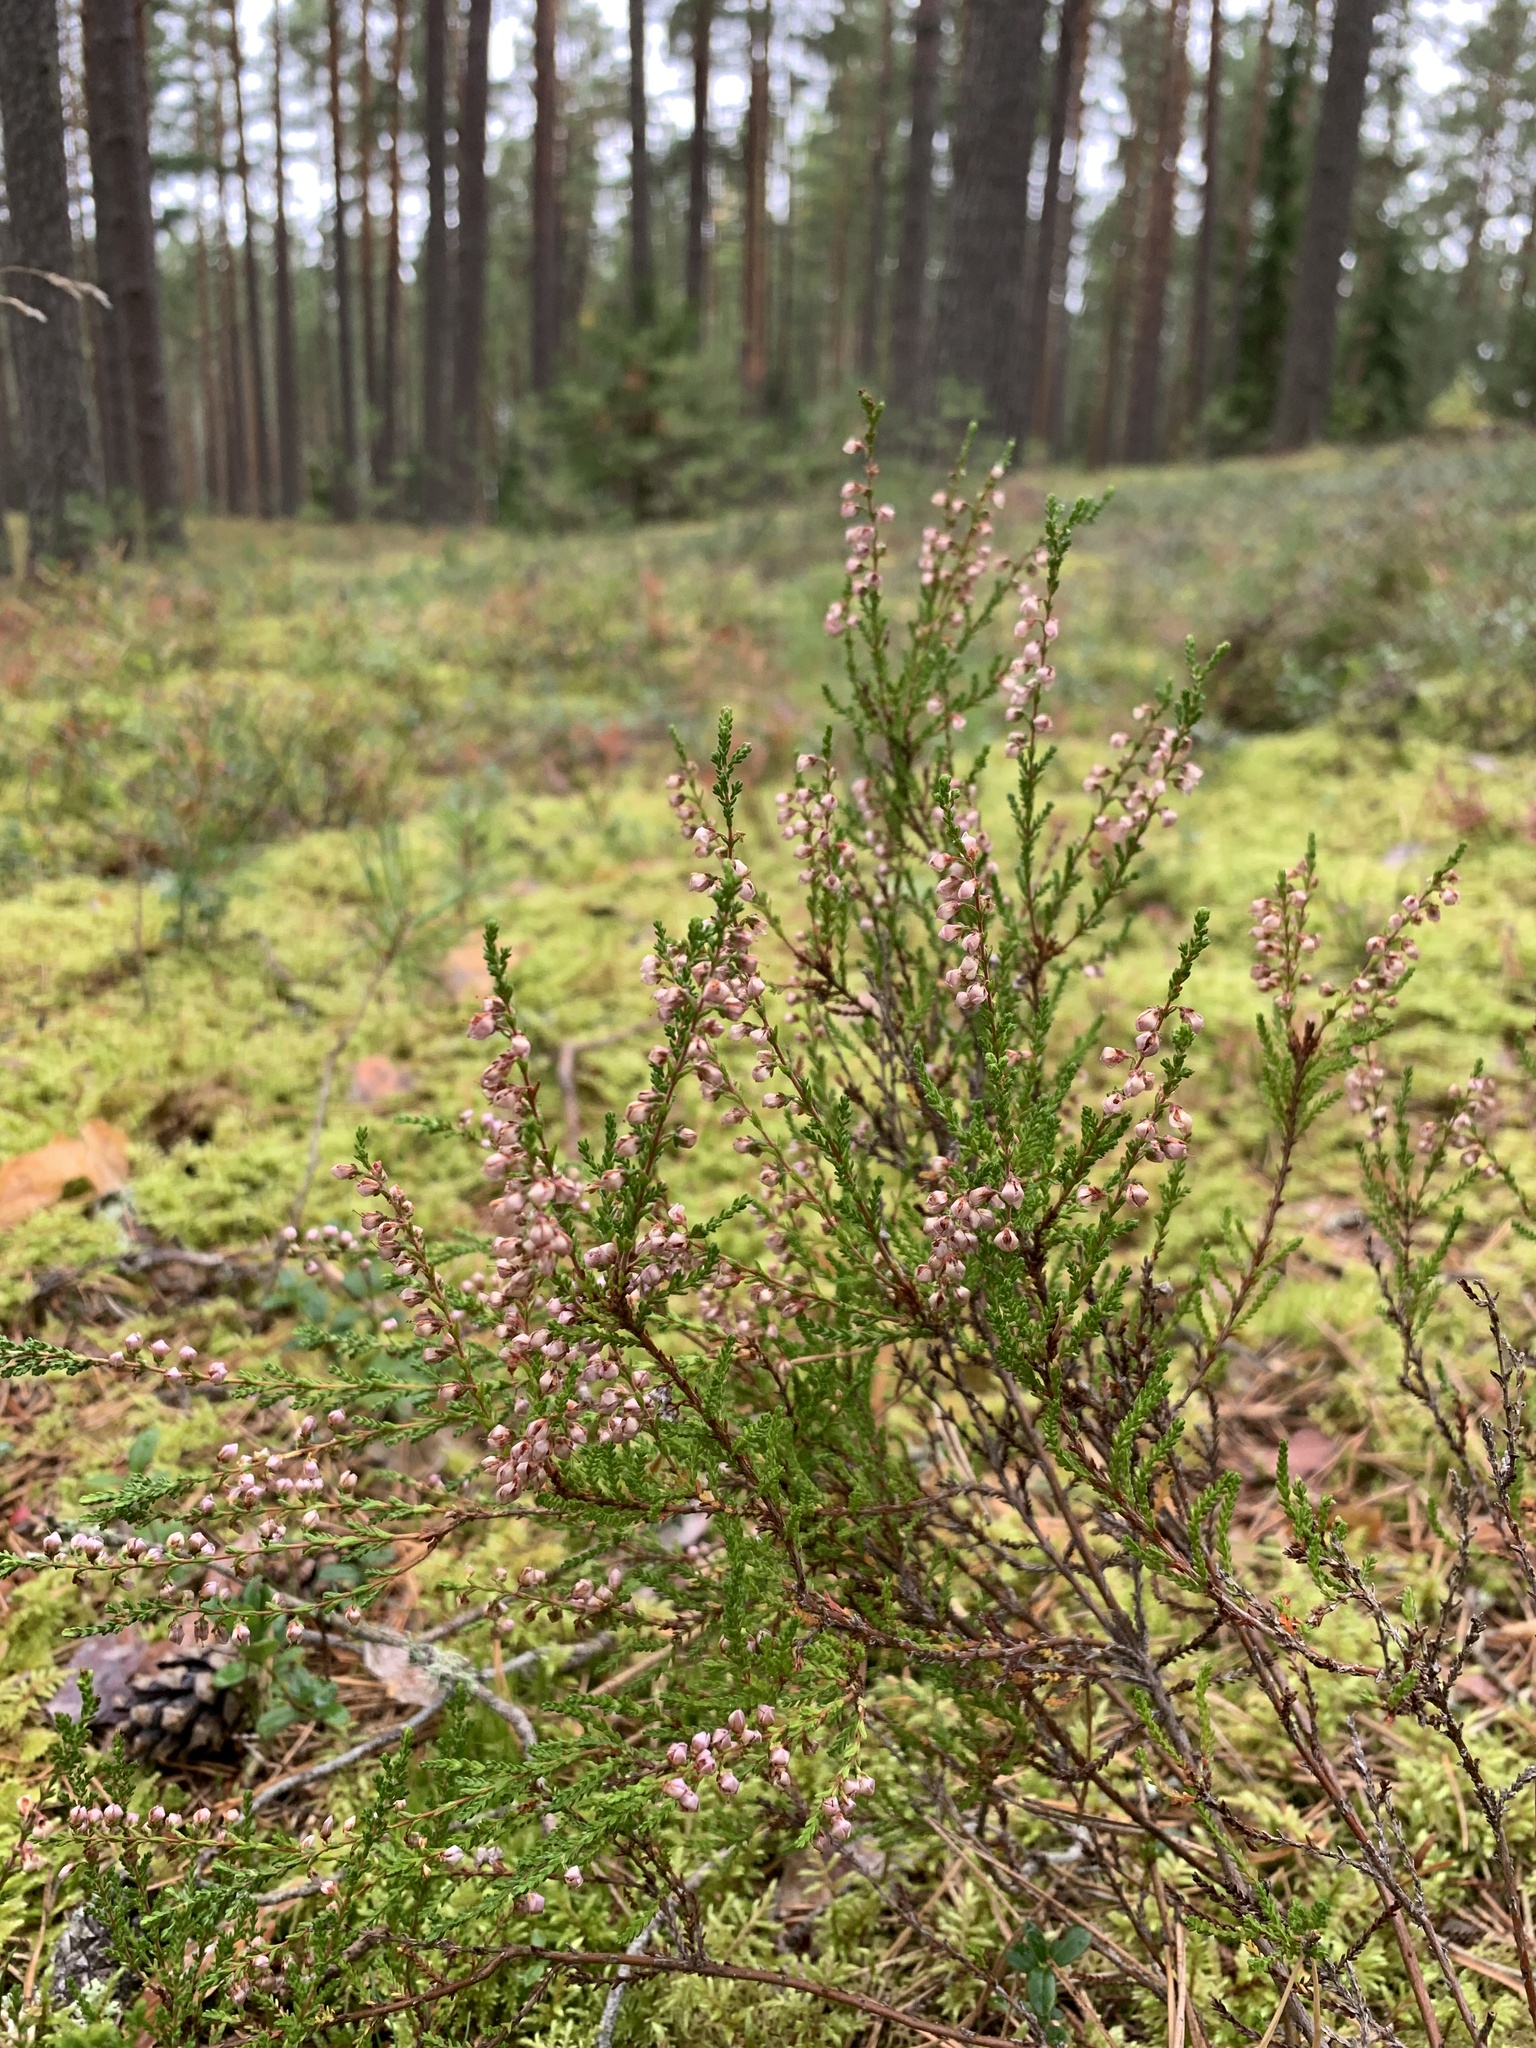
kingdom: Plantae
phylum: Tracheophyta
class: Magnoliopsida
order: Ericales
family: Ericaceae
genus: Calluna
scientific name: Calluna vulgaris
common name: Heather
